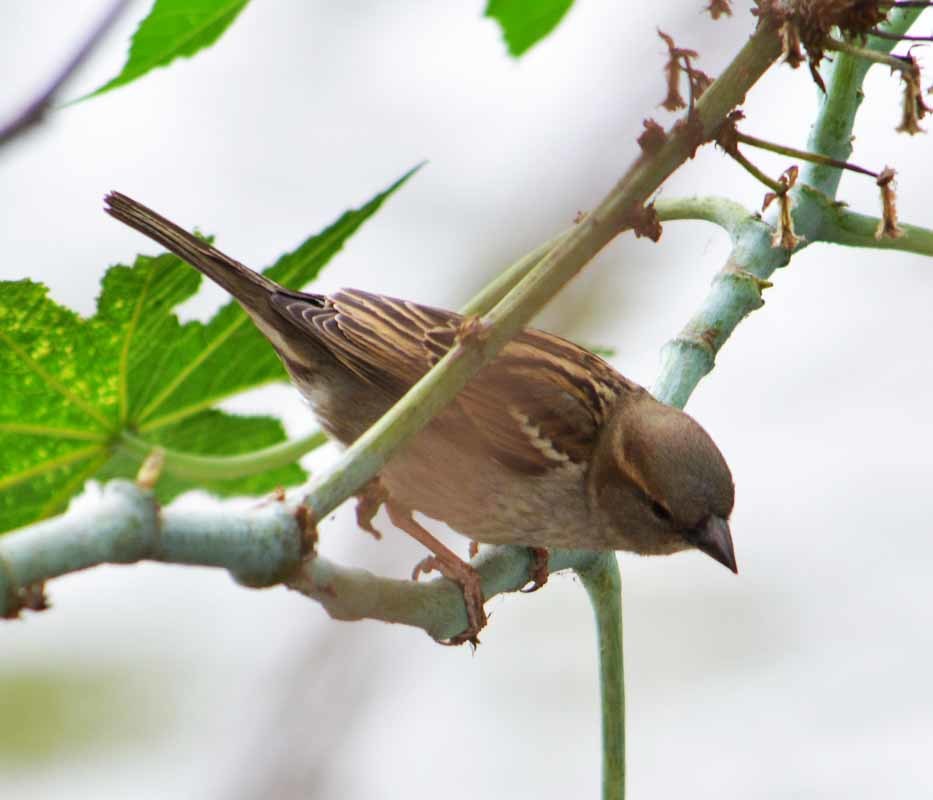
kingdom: Animalia
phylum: Chordata
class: Aves
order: Passeriformes
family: Passeridae
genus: Passer
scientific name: Passer domesticus
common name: House sparrow
